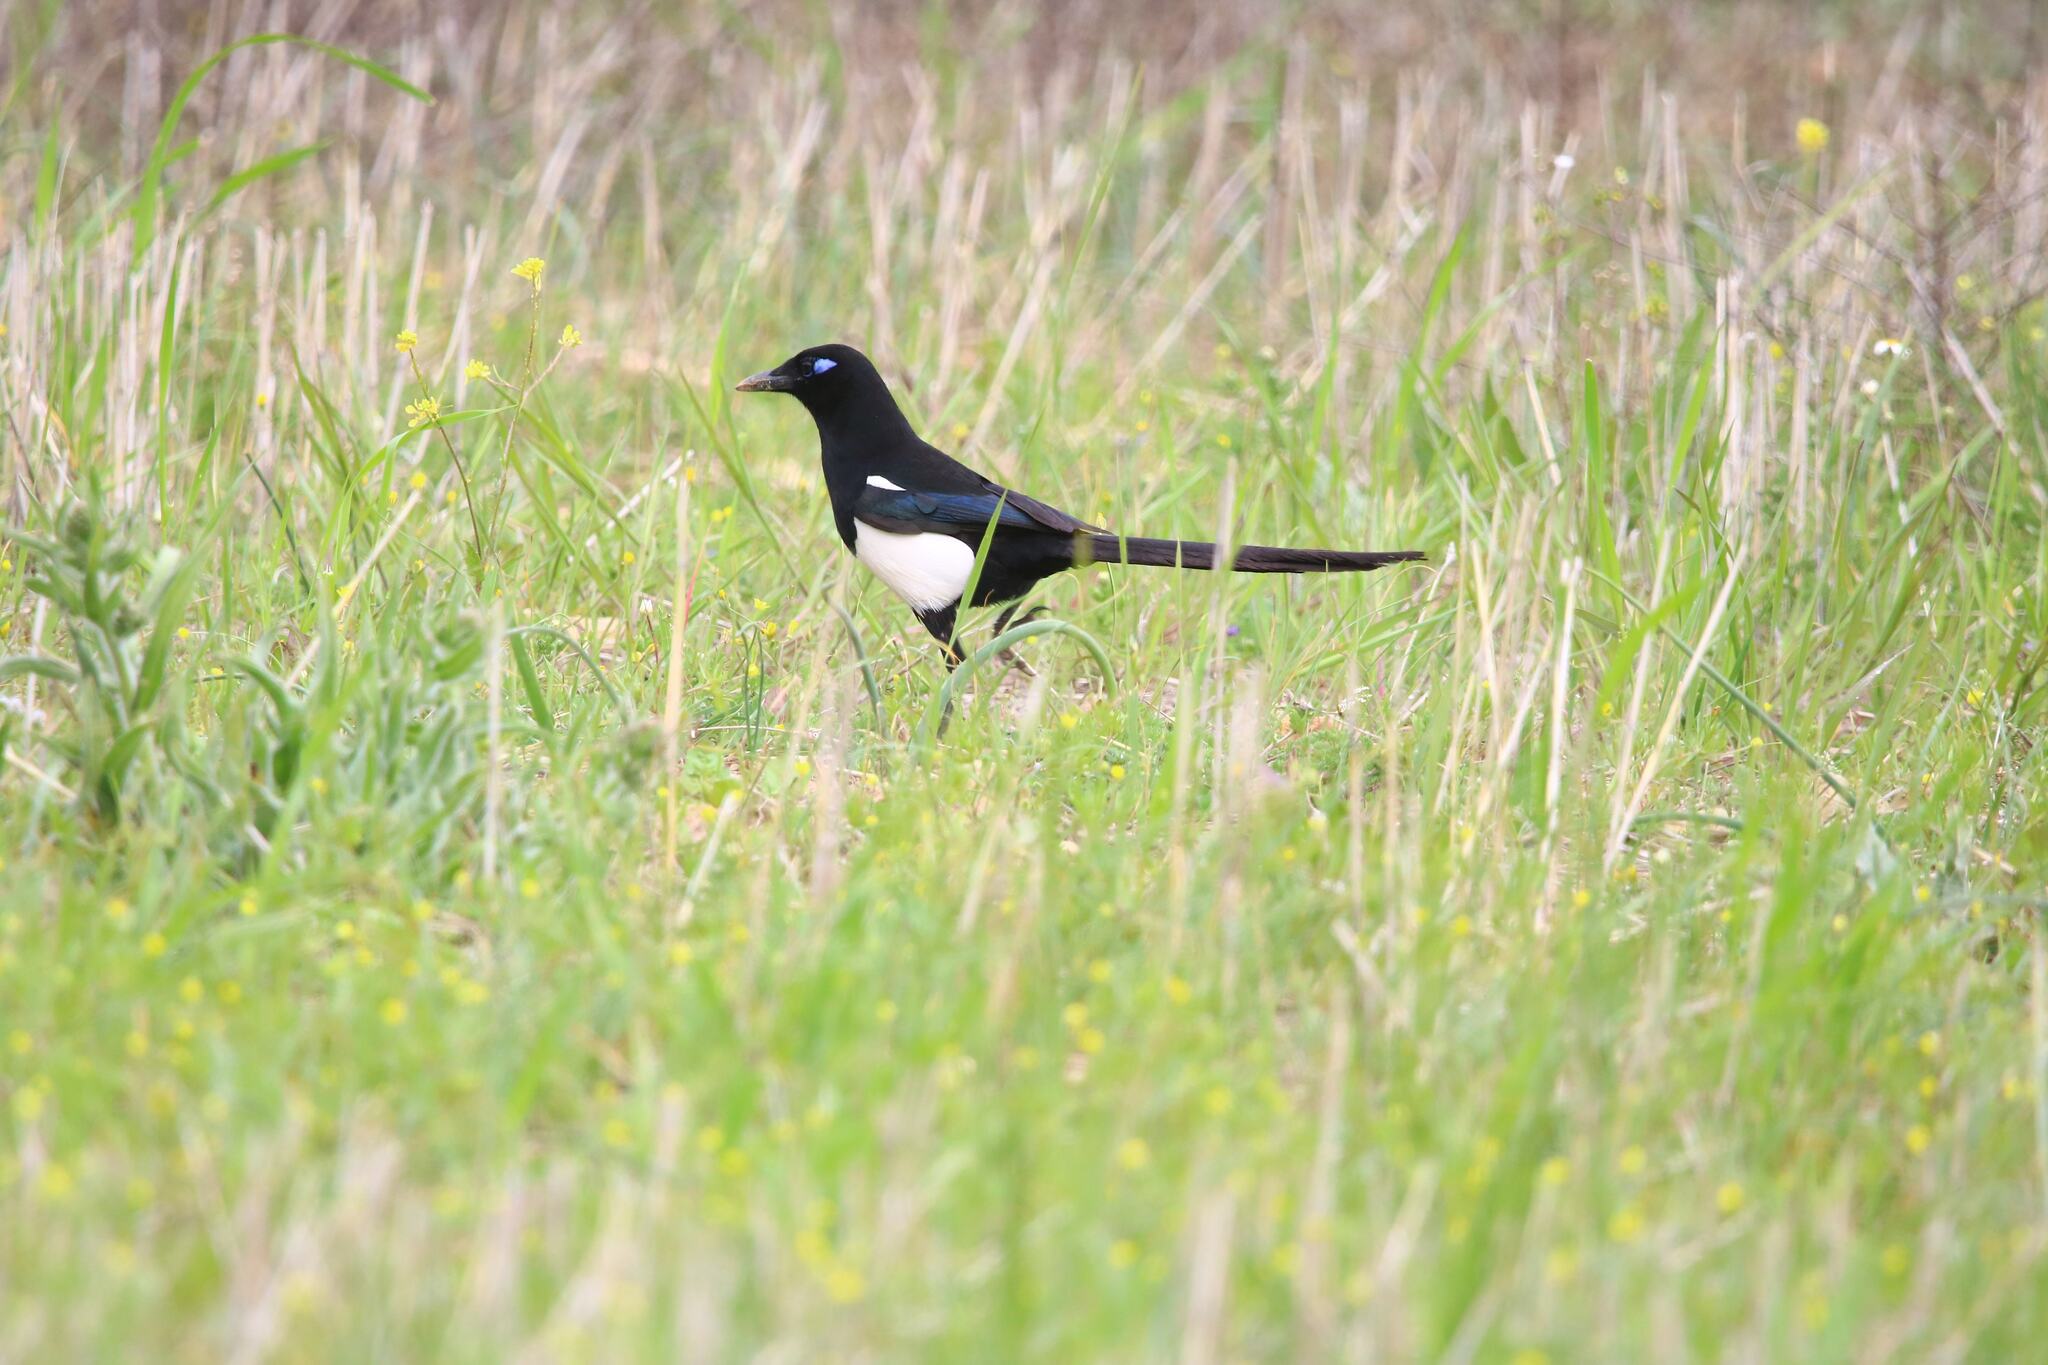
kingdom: Animalia
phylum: Chordata
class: Aves
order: Passeriformes
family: Corvidae
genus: Pica
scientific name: Pica mauritanica
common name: Maghreb magpie
